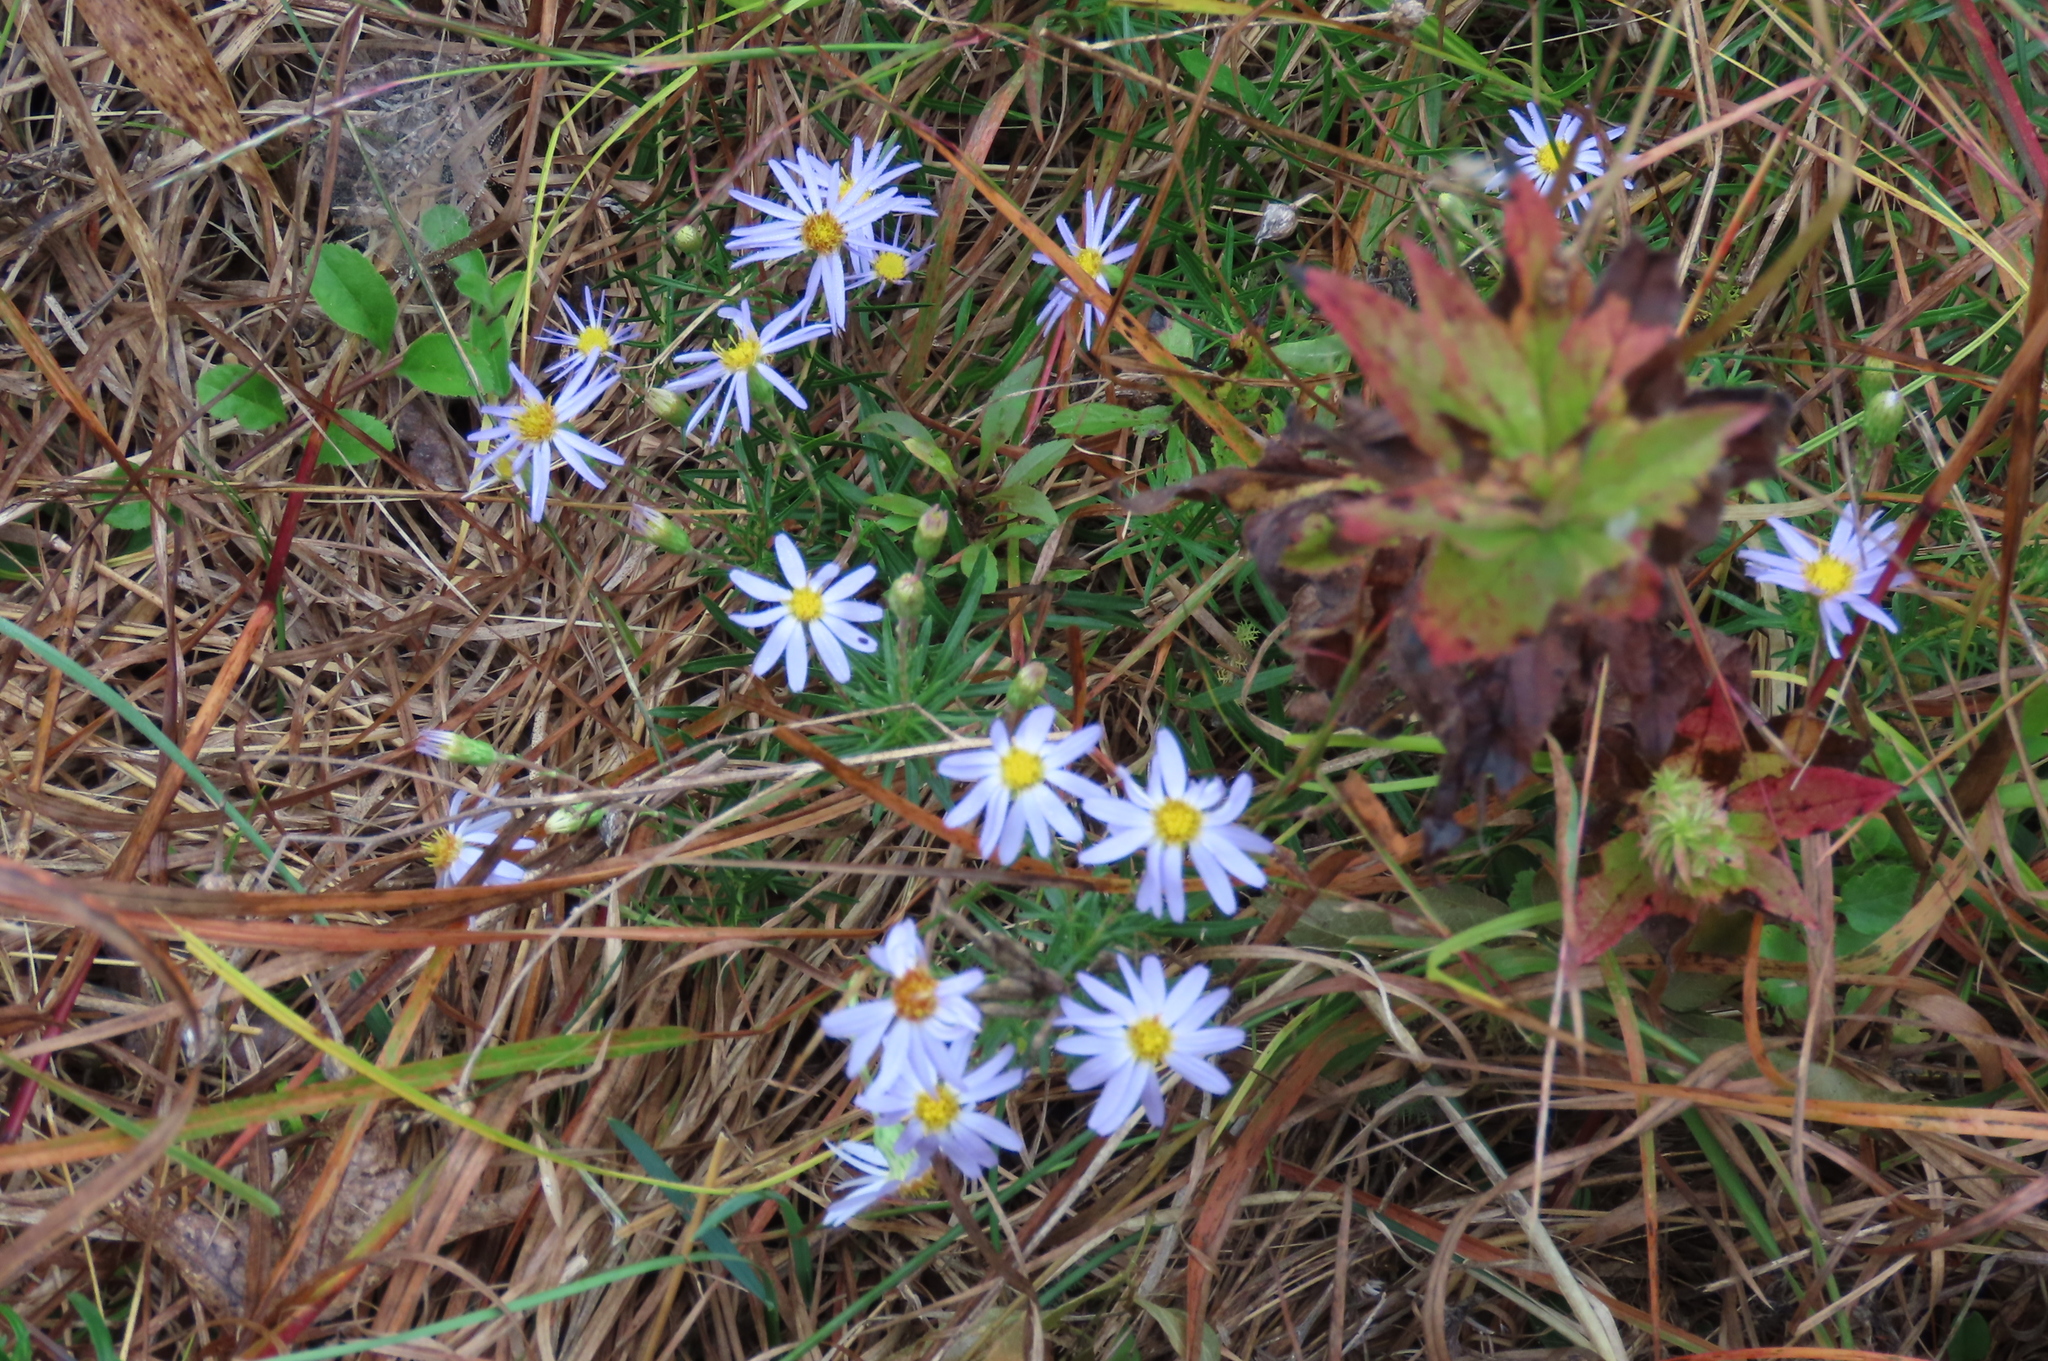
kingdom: Plantae
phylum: Tracheophyta
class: Magnoliopsida
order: Asterales
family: Asteraceae
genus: Ionactis
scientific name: Ionactis linariifolia
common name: Flax-leaf aster
